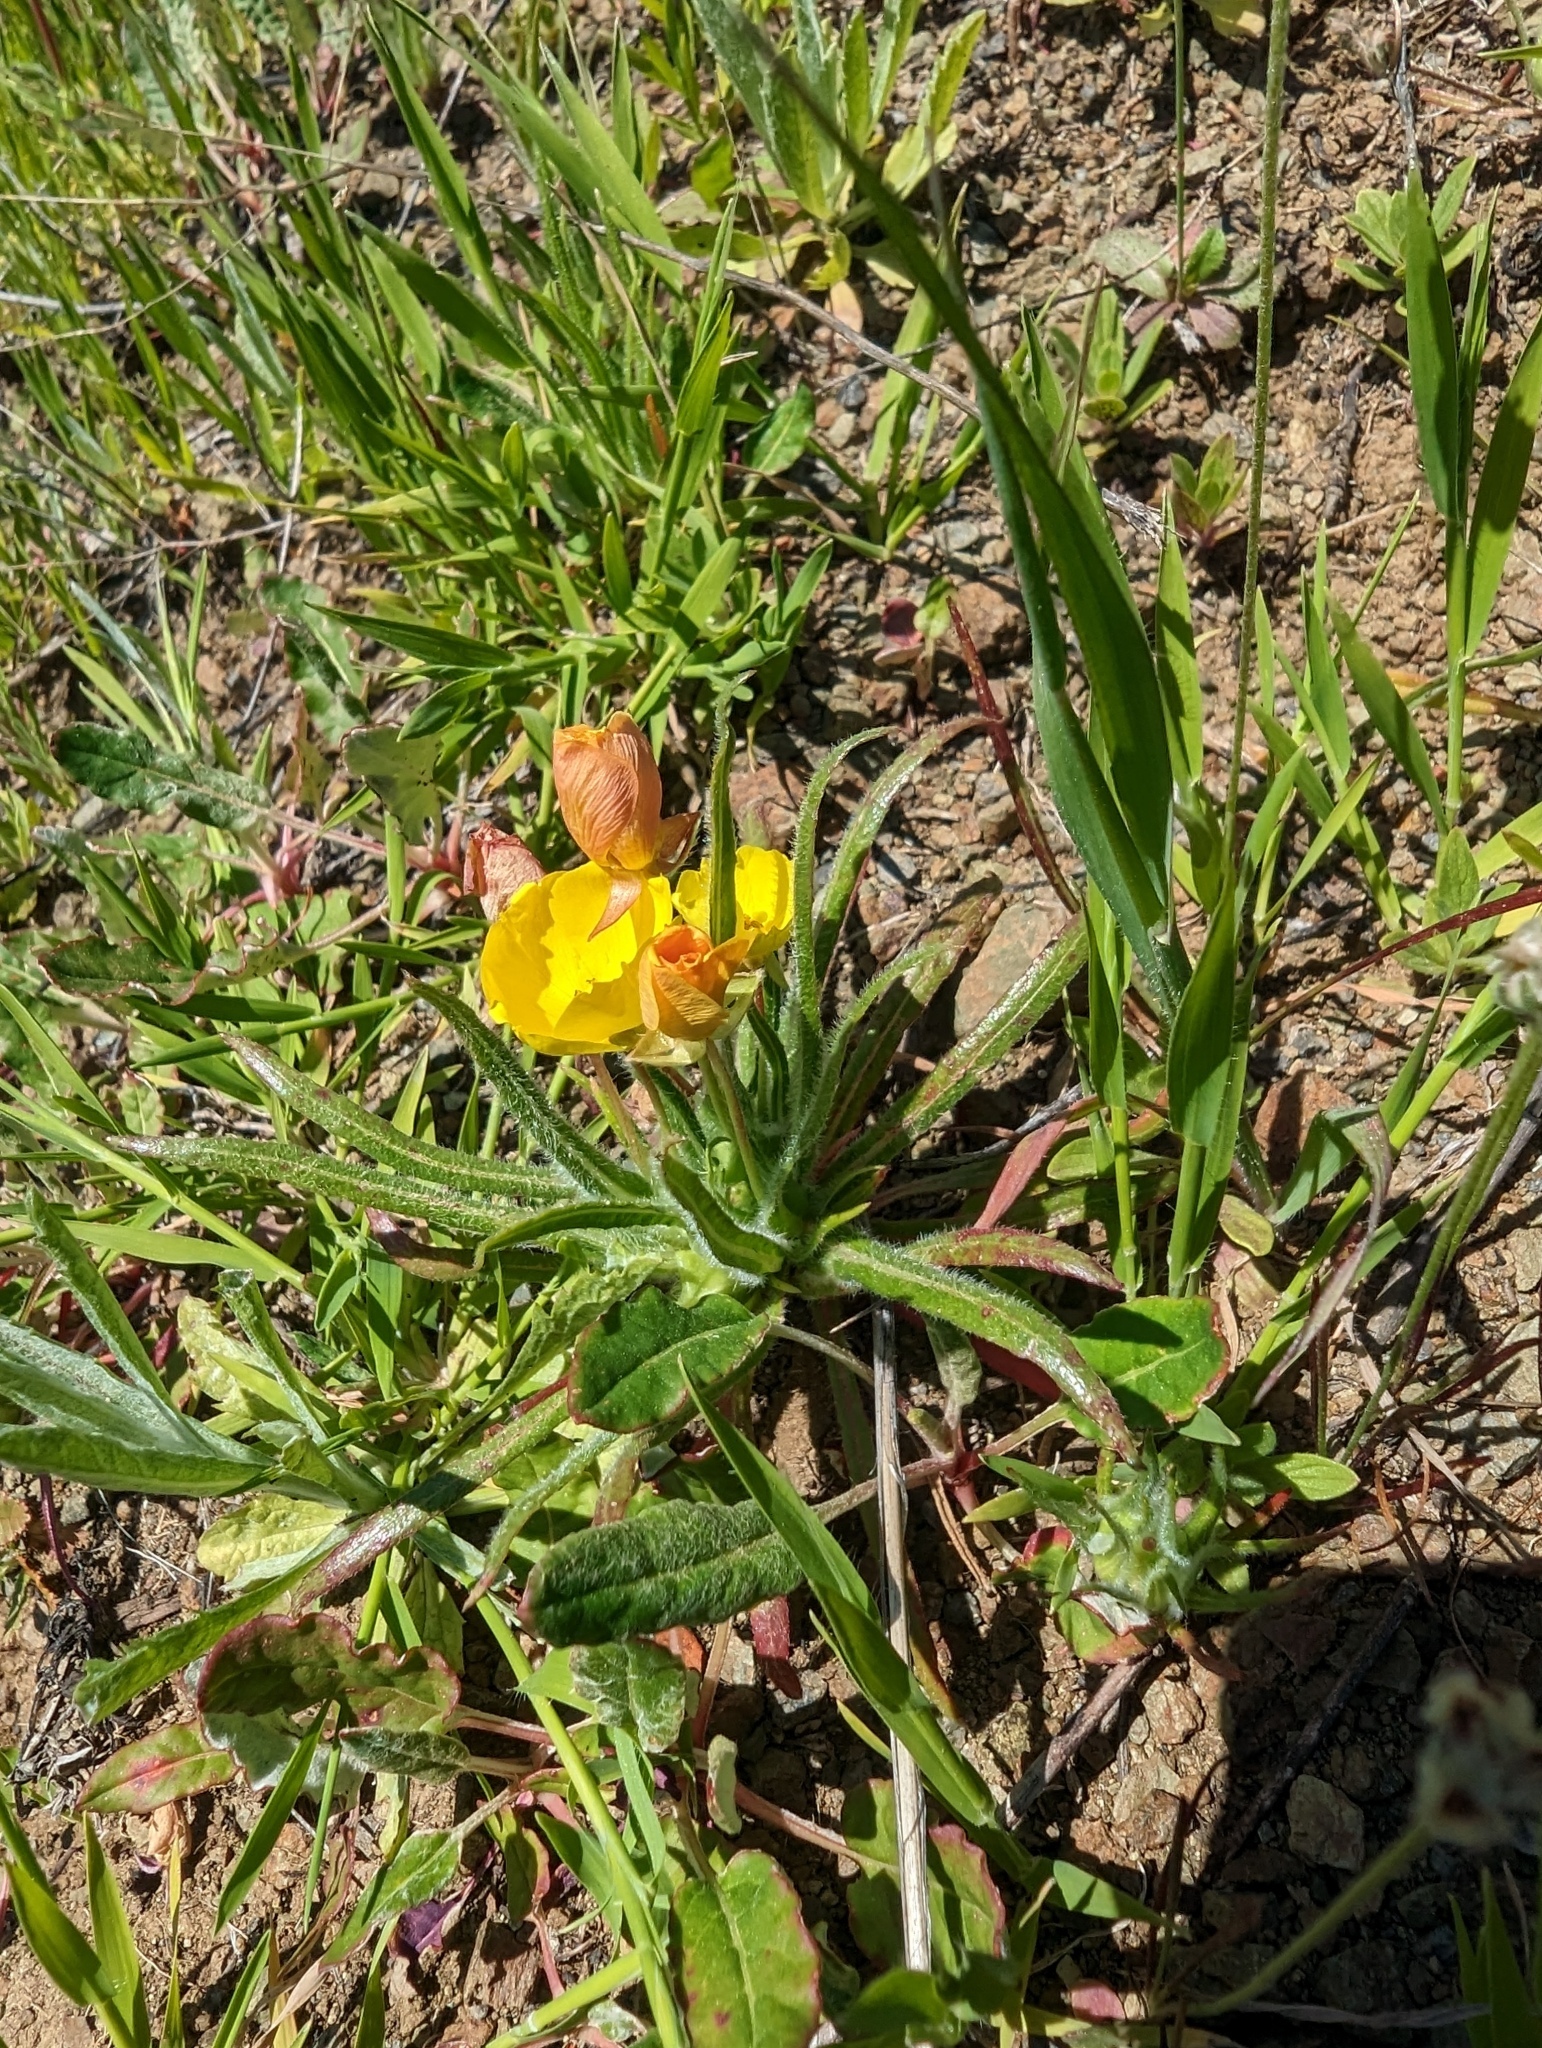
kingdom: Plantae
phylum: Tracheophyta
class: Magnoliopsida
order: Myrtales
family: Onagraceae
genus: Tetrapteron
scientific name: Tetrapteron graciliflorum
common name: Hill suncup
